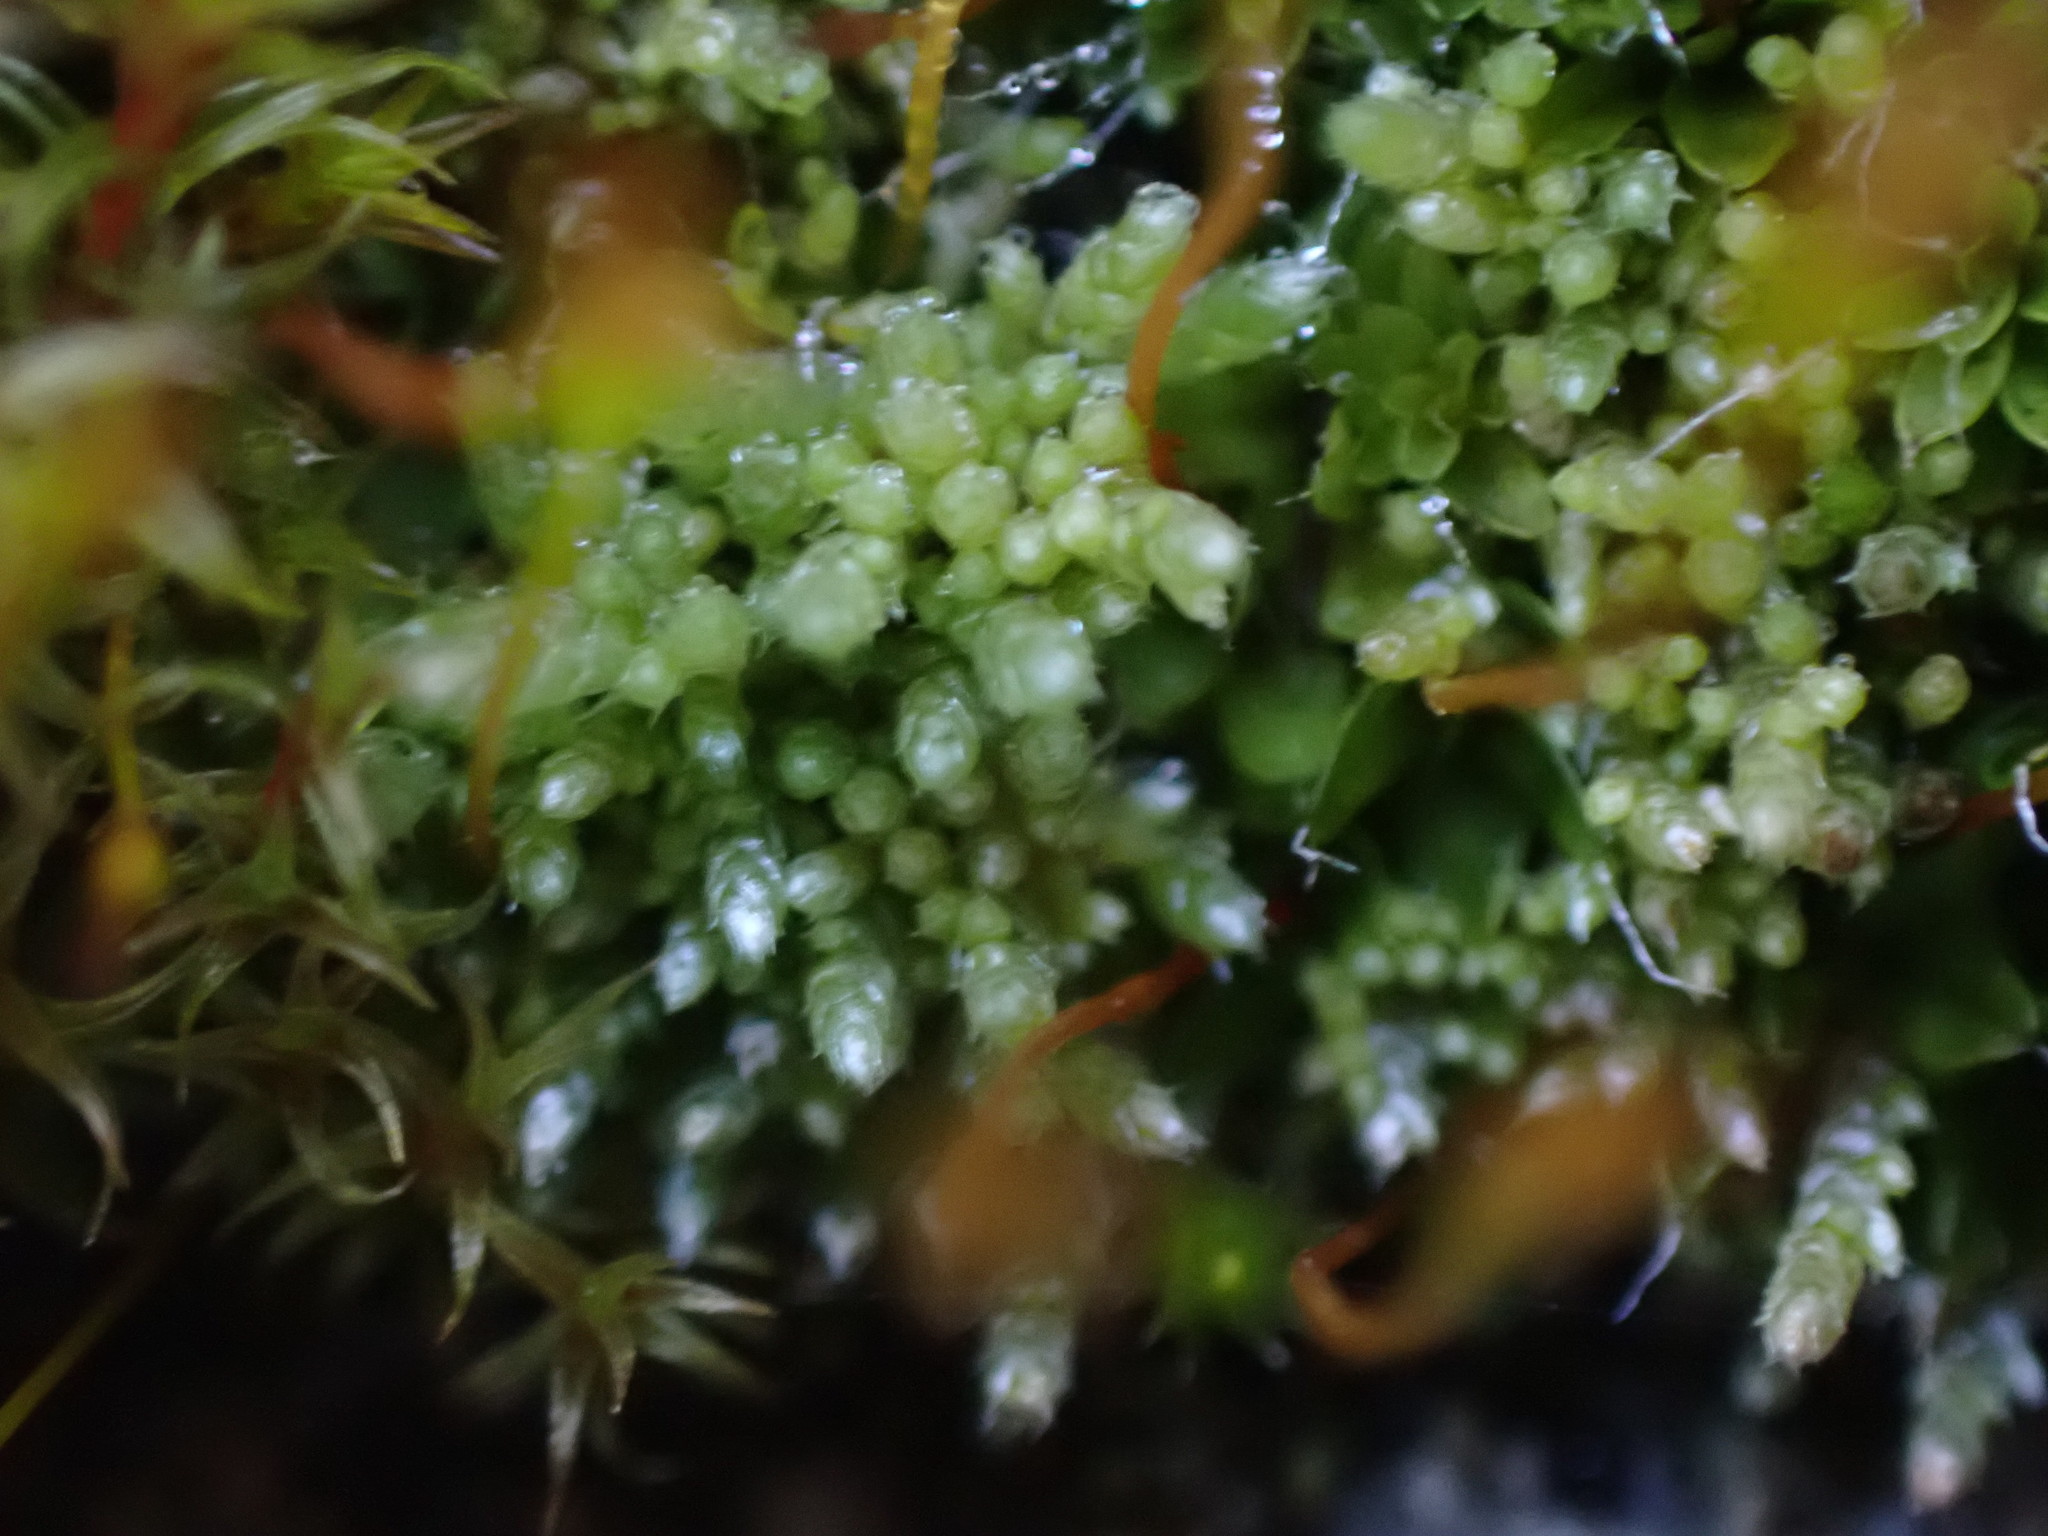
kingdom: Plantae
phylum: Bryophyta
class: Bryopsida
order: Bryales
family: Bryaceae
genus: Bryum
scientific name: Bryum argenteum
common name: Silver-moss
